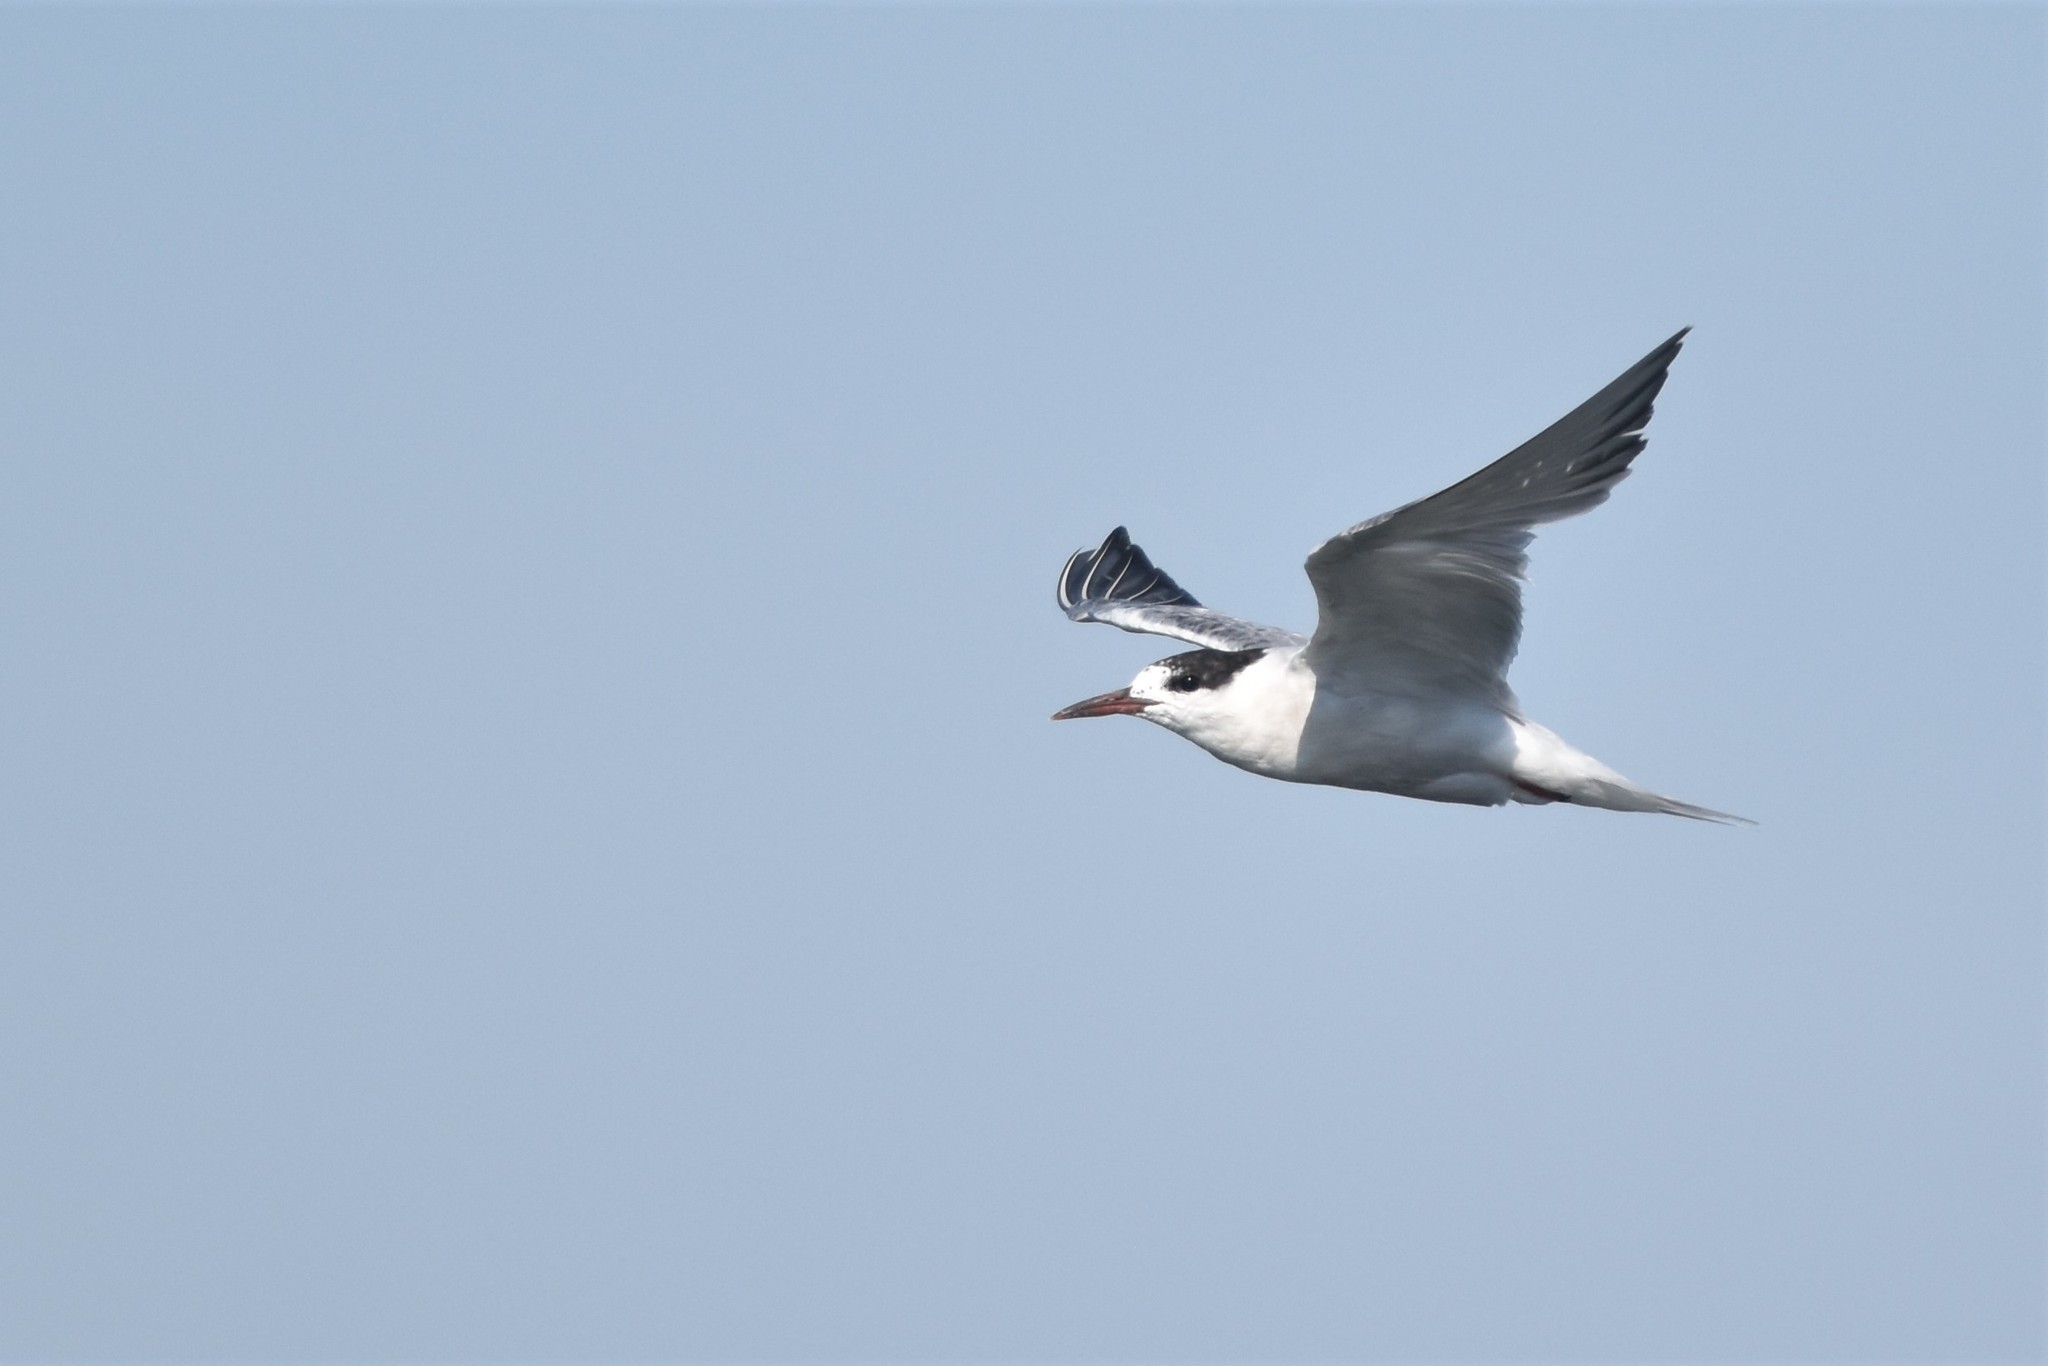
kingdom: Animalia
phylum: Chordata
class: Aves
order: Charadriiformes
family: Laridae
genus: Sterna
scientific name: Sterna hirundo
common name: Common tern
